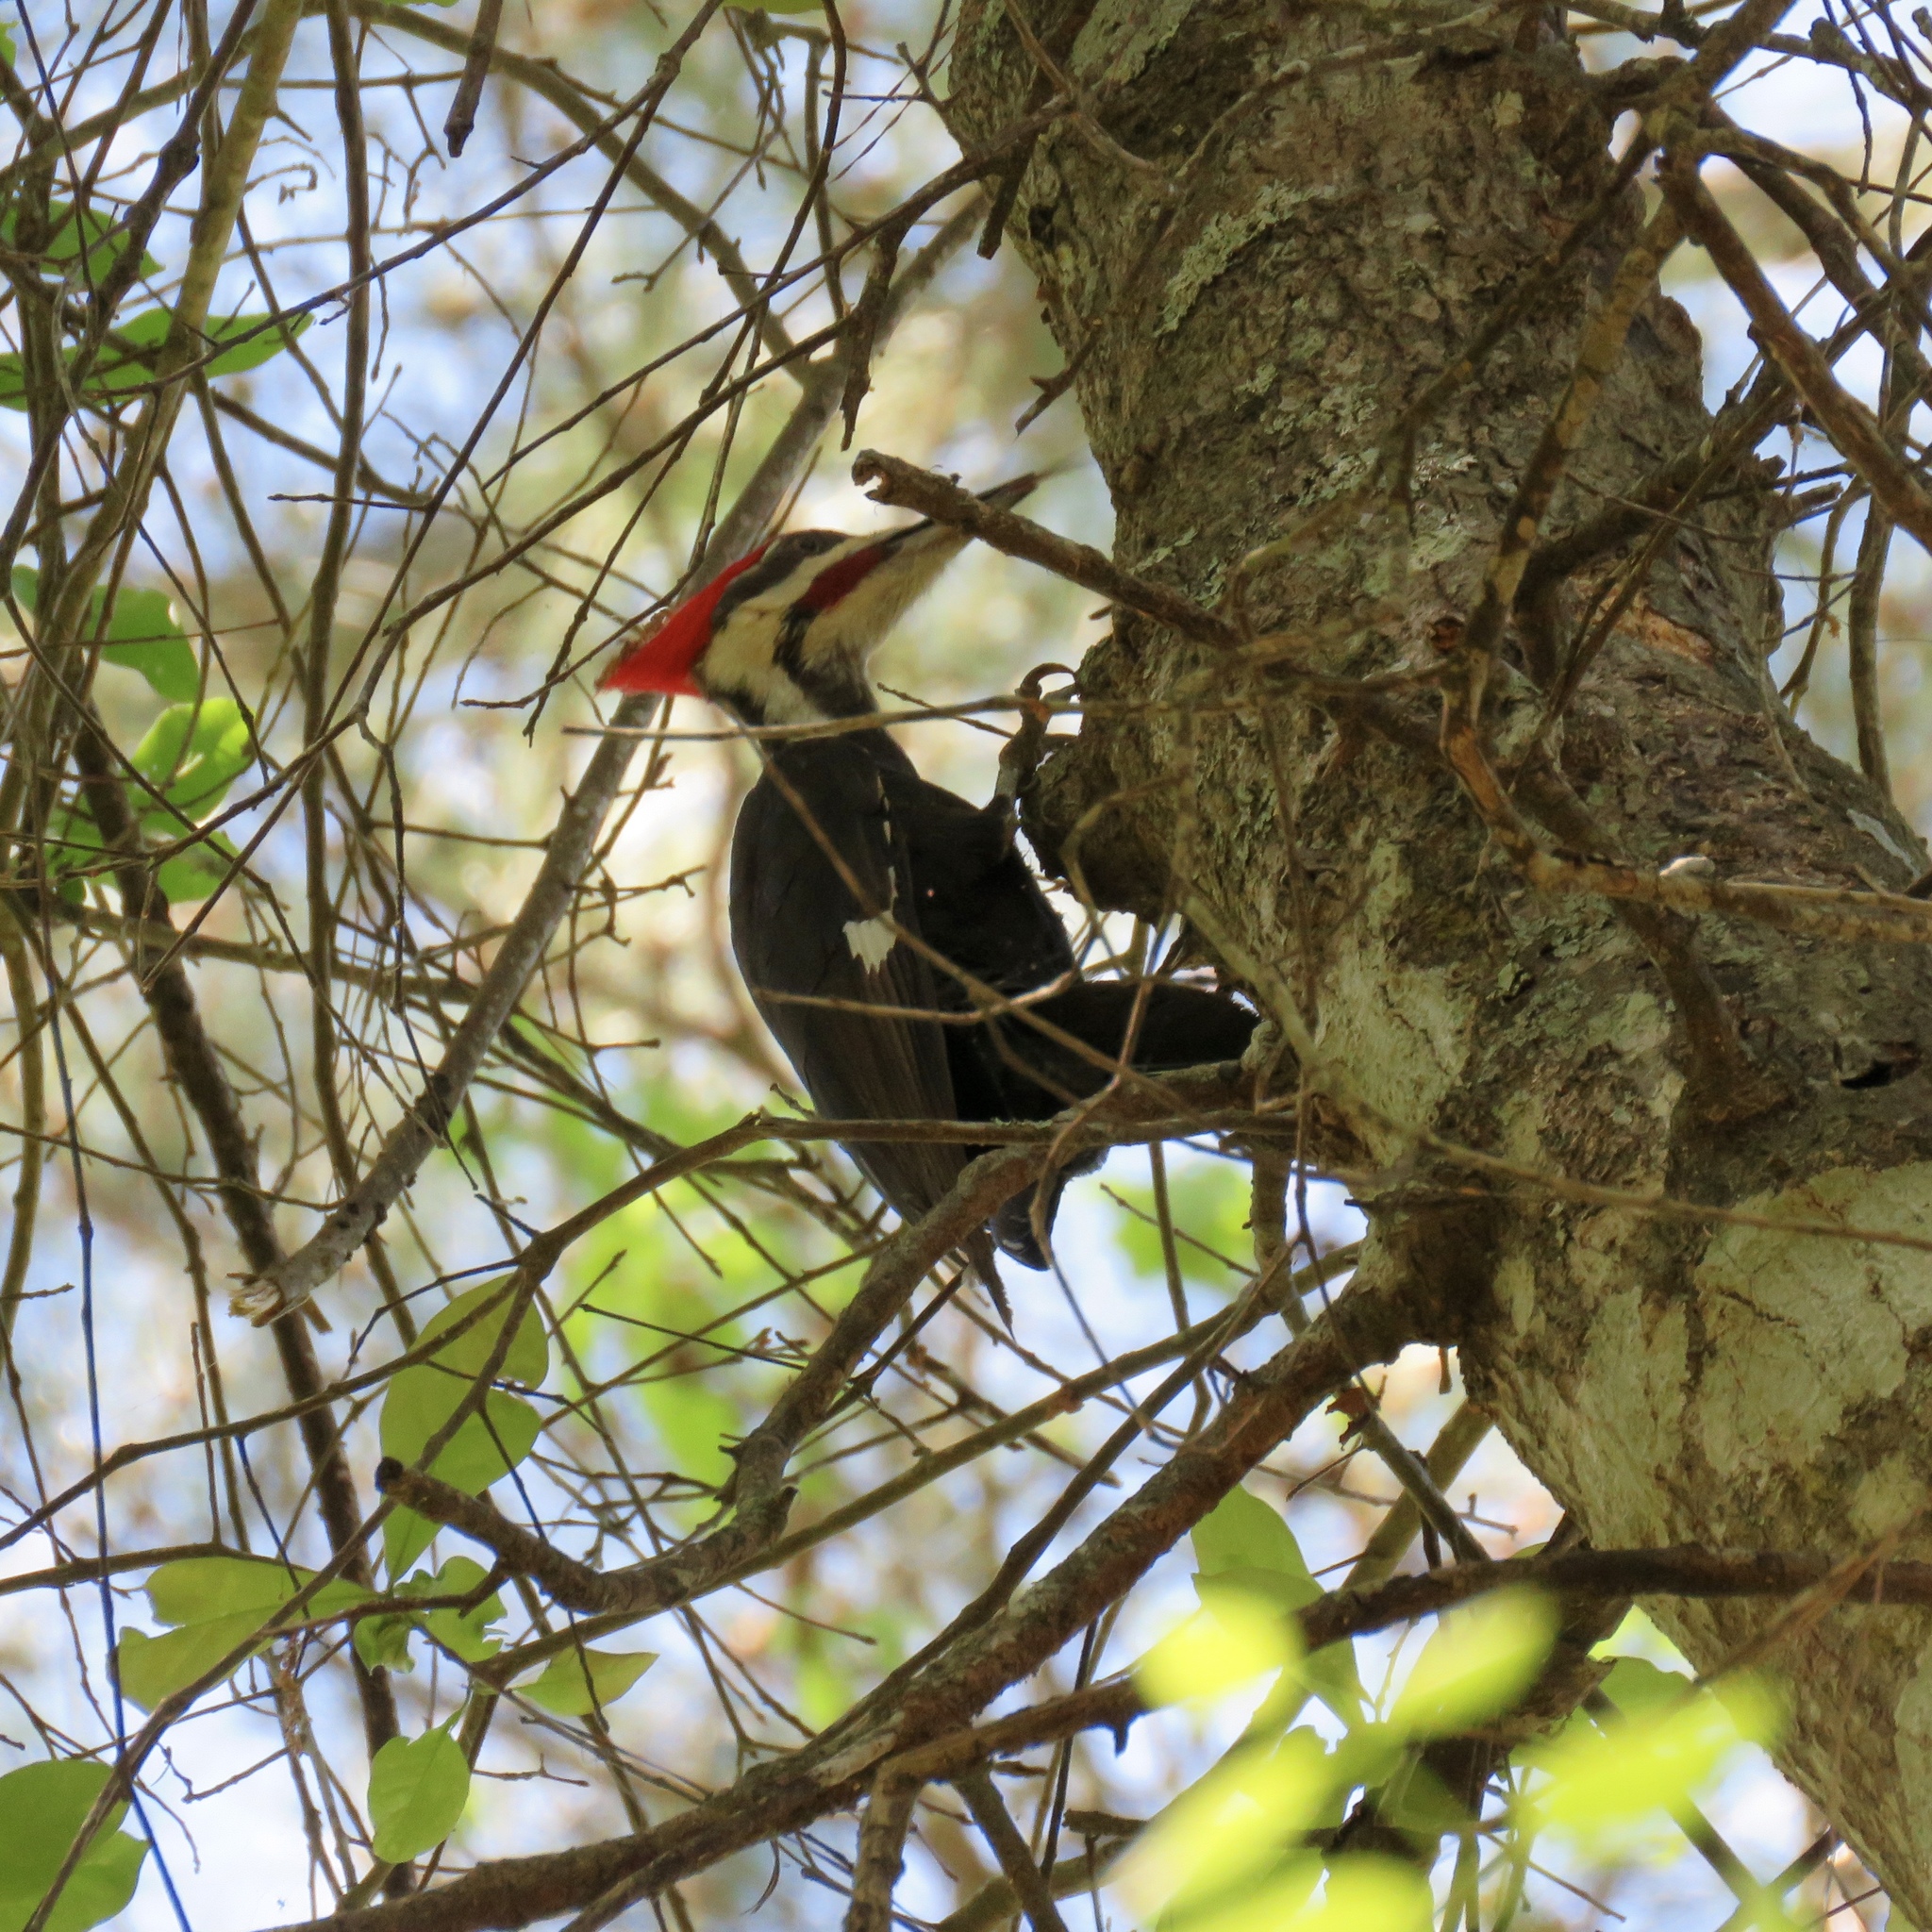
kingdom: Animalia
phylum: Chordata
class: Aves
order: Piciformes
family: Picidae
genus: Dryocopus
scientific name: Dryocopus pileatus
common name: Pileated woodpecker
